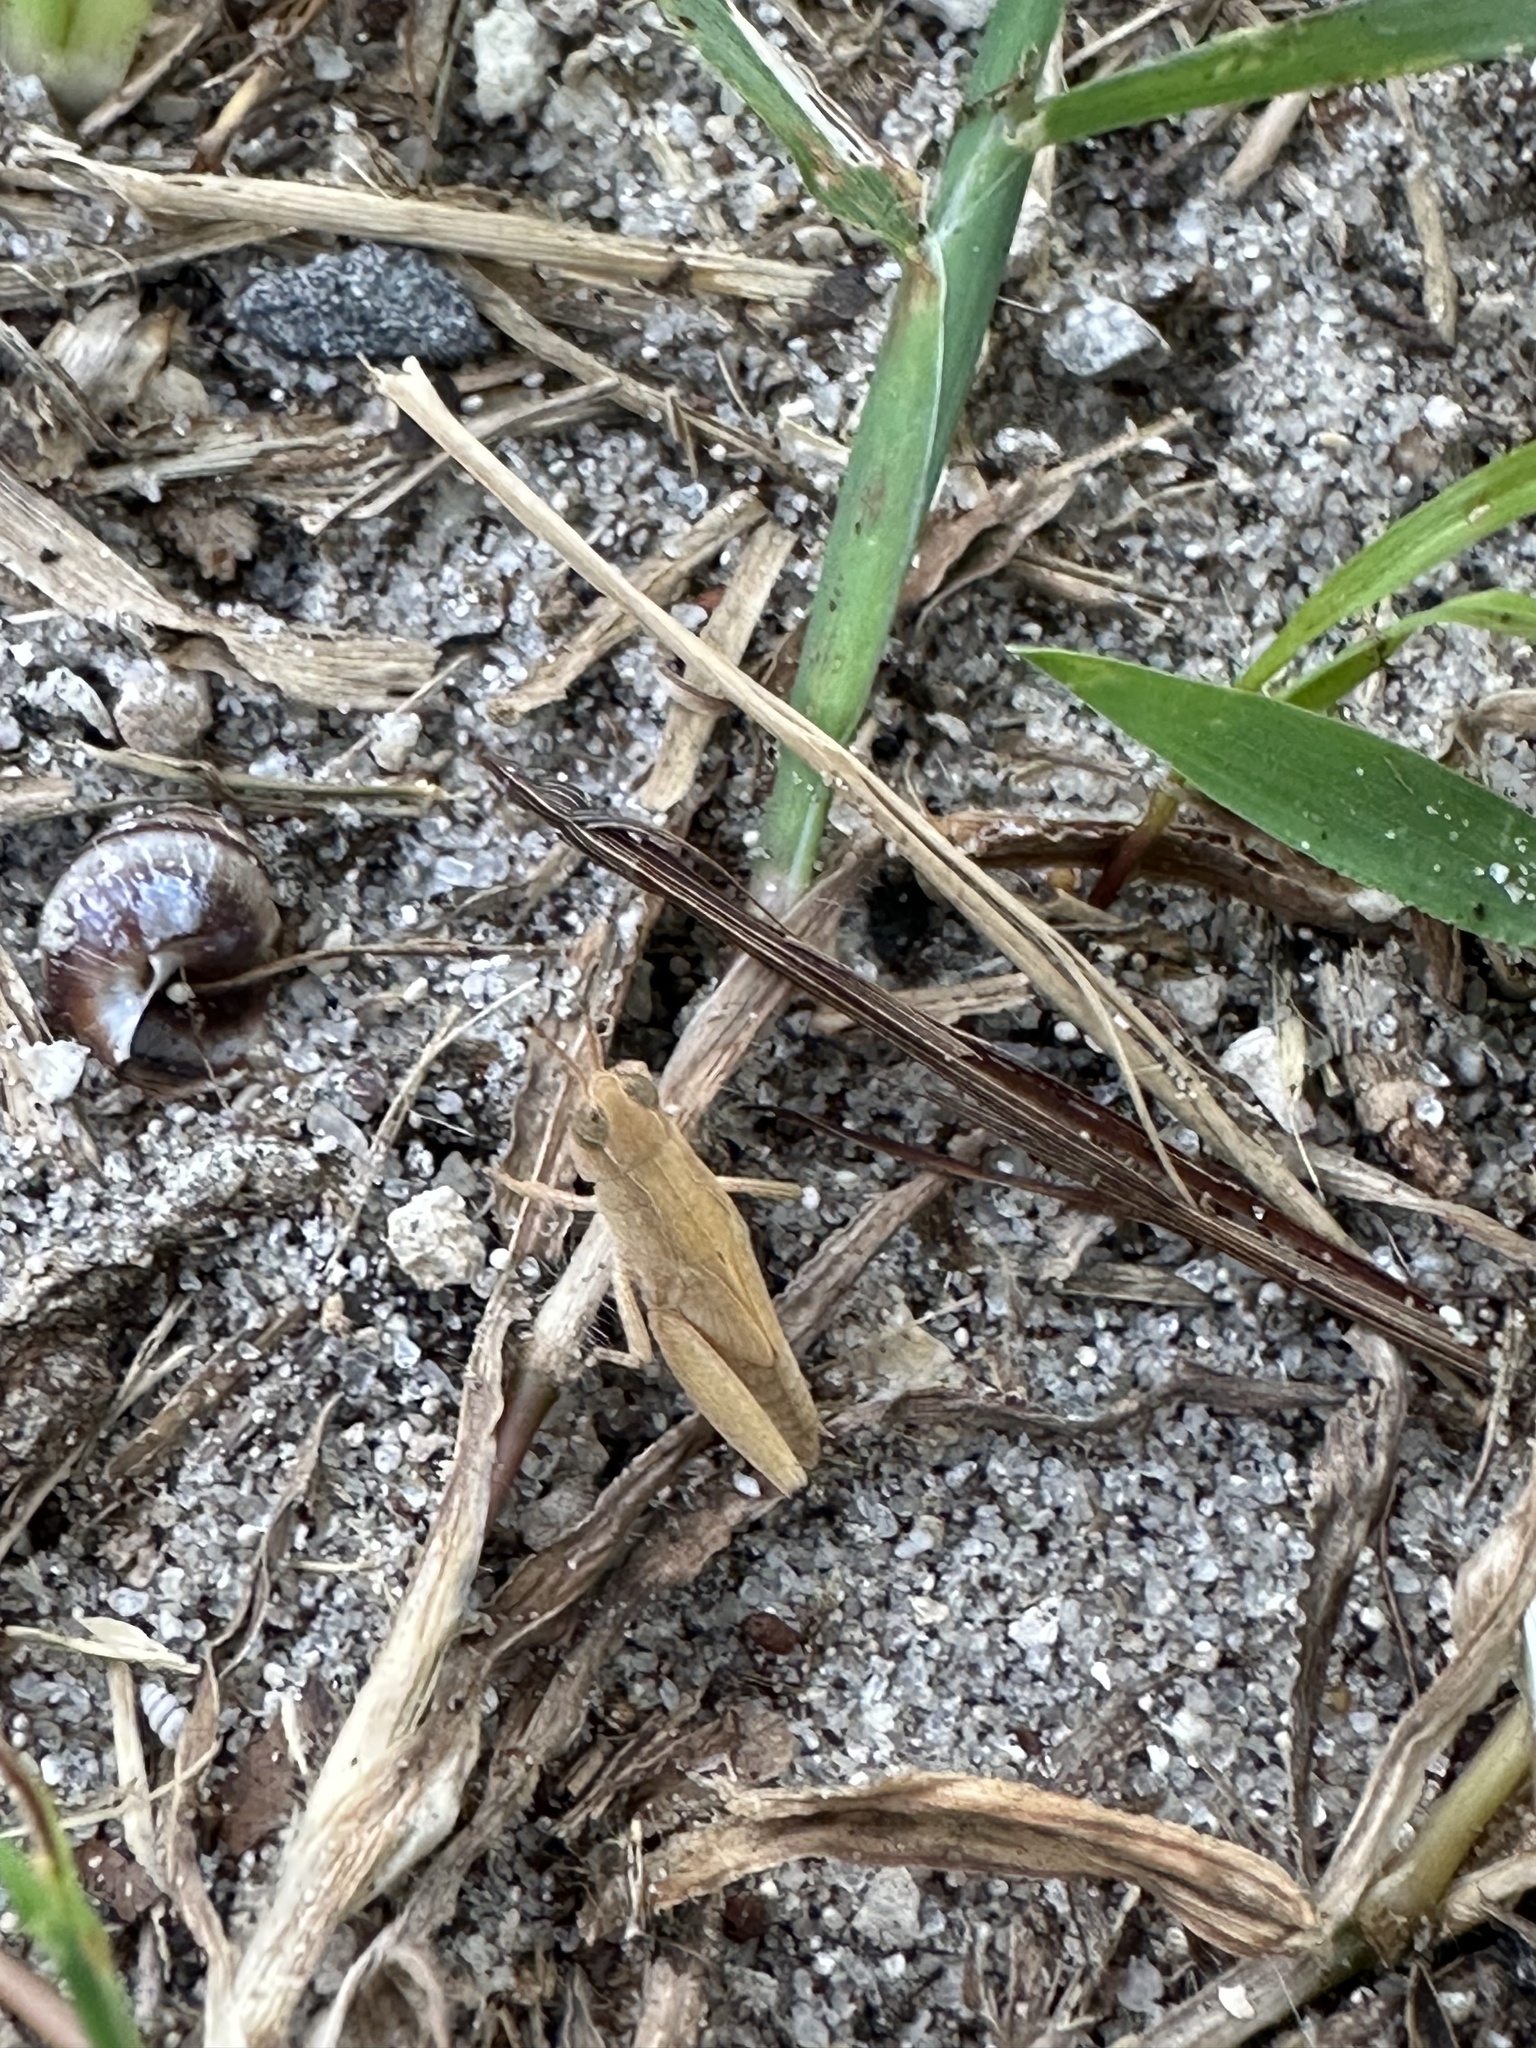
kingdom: Animalia
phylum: Arthropoda
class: Insecta
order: Orthoptera
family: Acrididae
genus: Orphulella
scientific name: Orphulella punctata
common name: Slant-faced grasshopper
